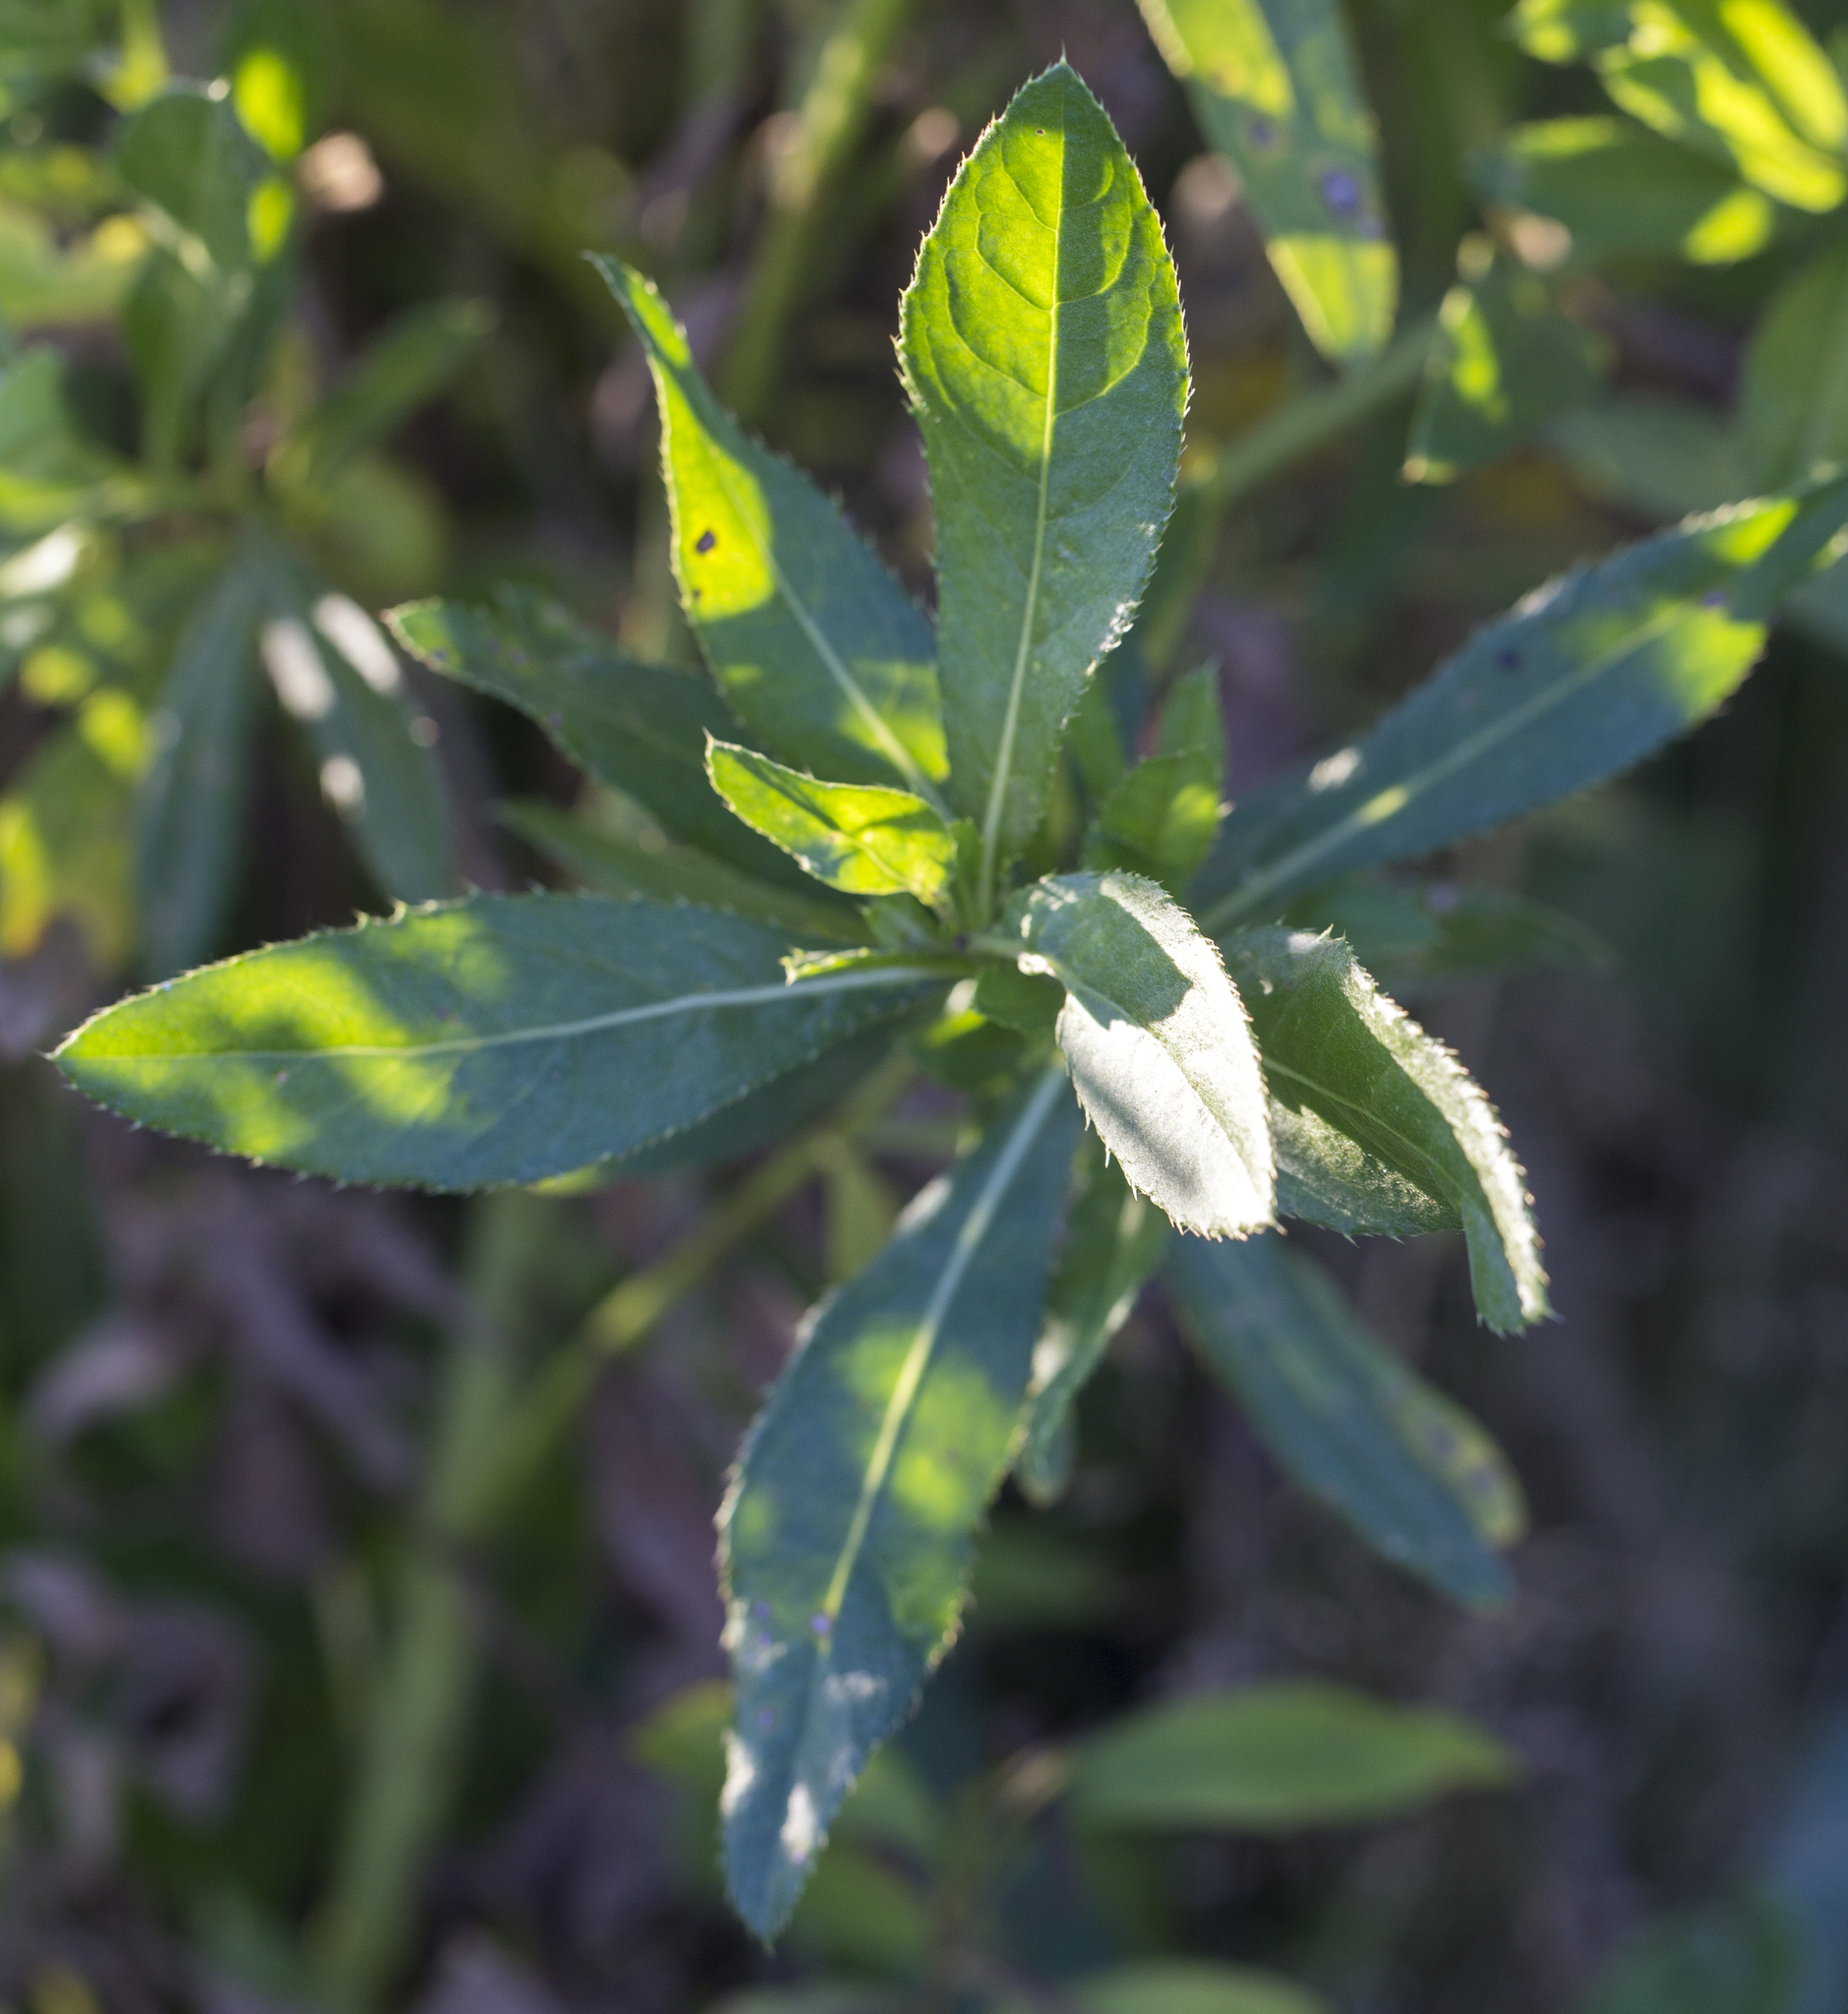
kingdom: Plantae
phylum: Tracheophyta
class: Magnoliopsida
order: Asterales
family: Asteraceae
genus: Cirsium
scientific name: Cirsium arvense
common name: Creeping thistle
